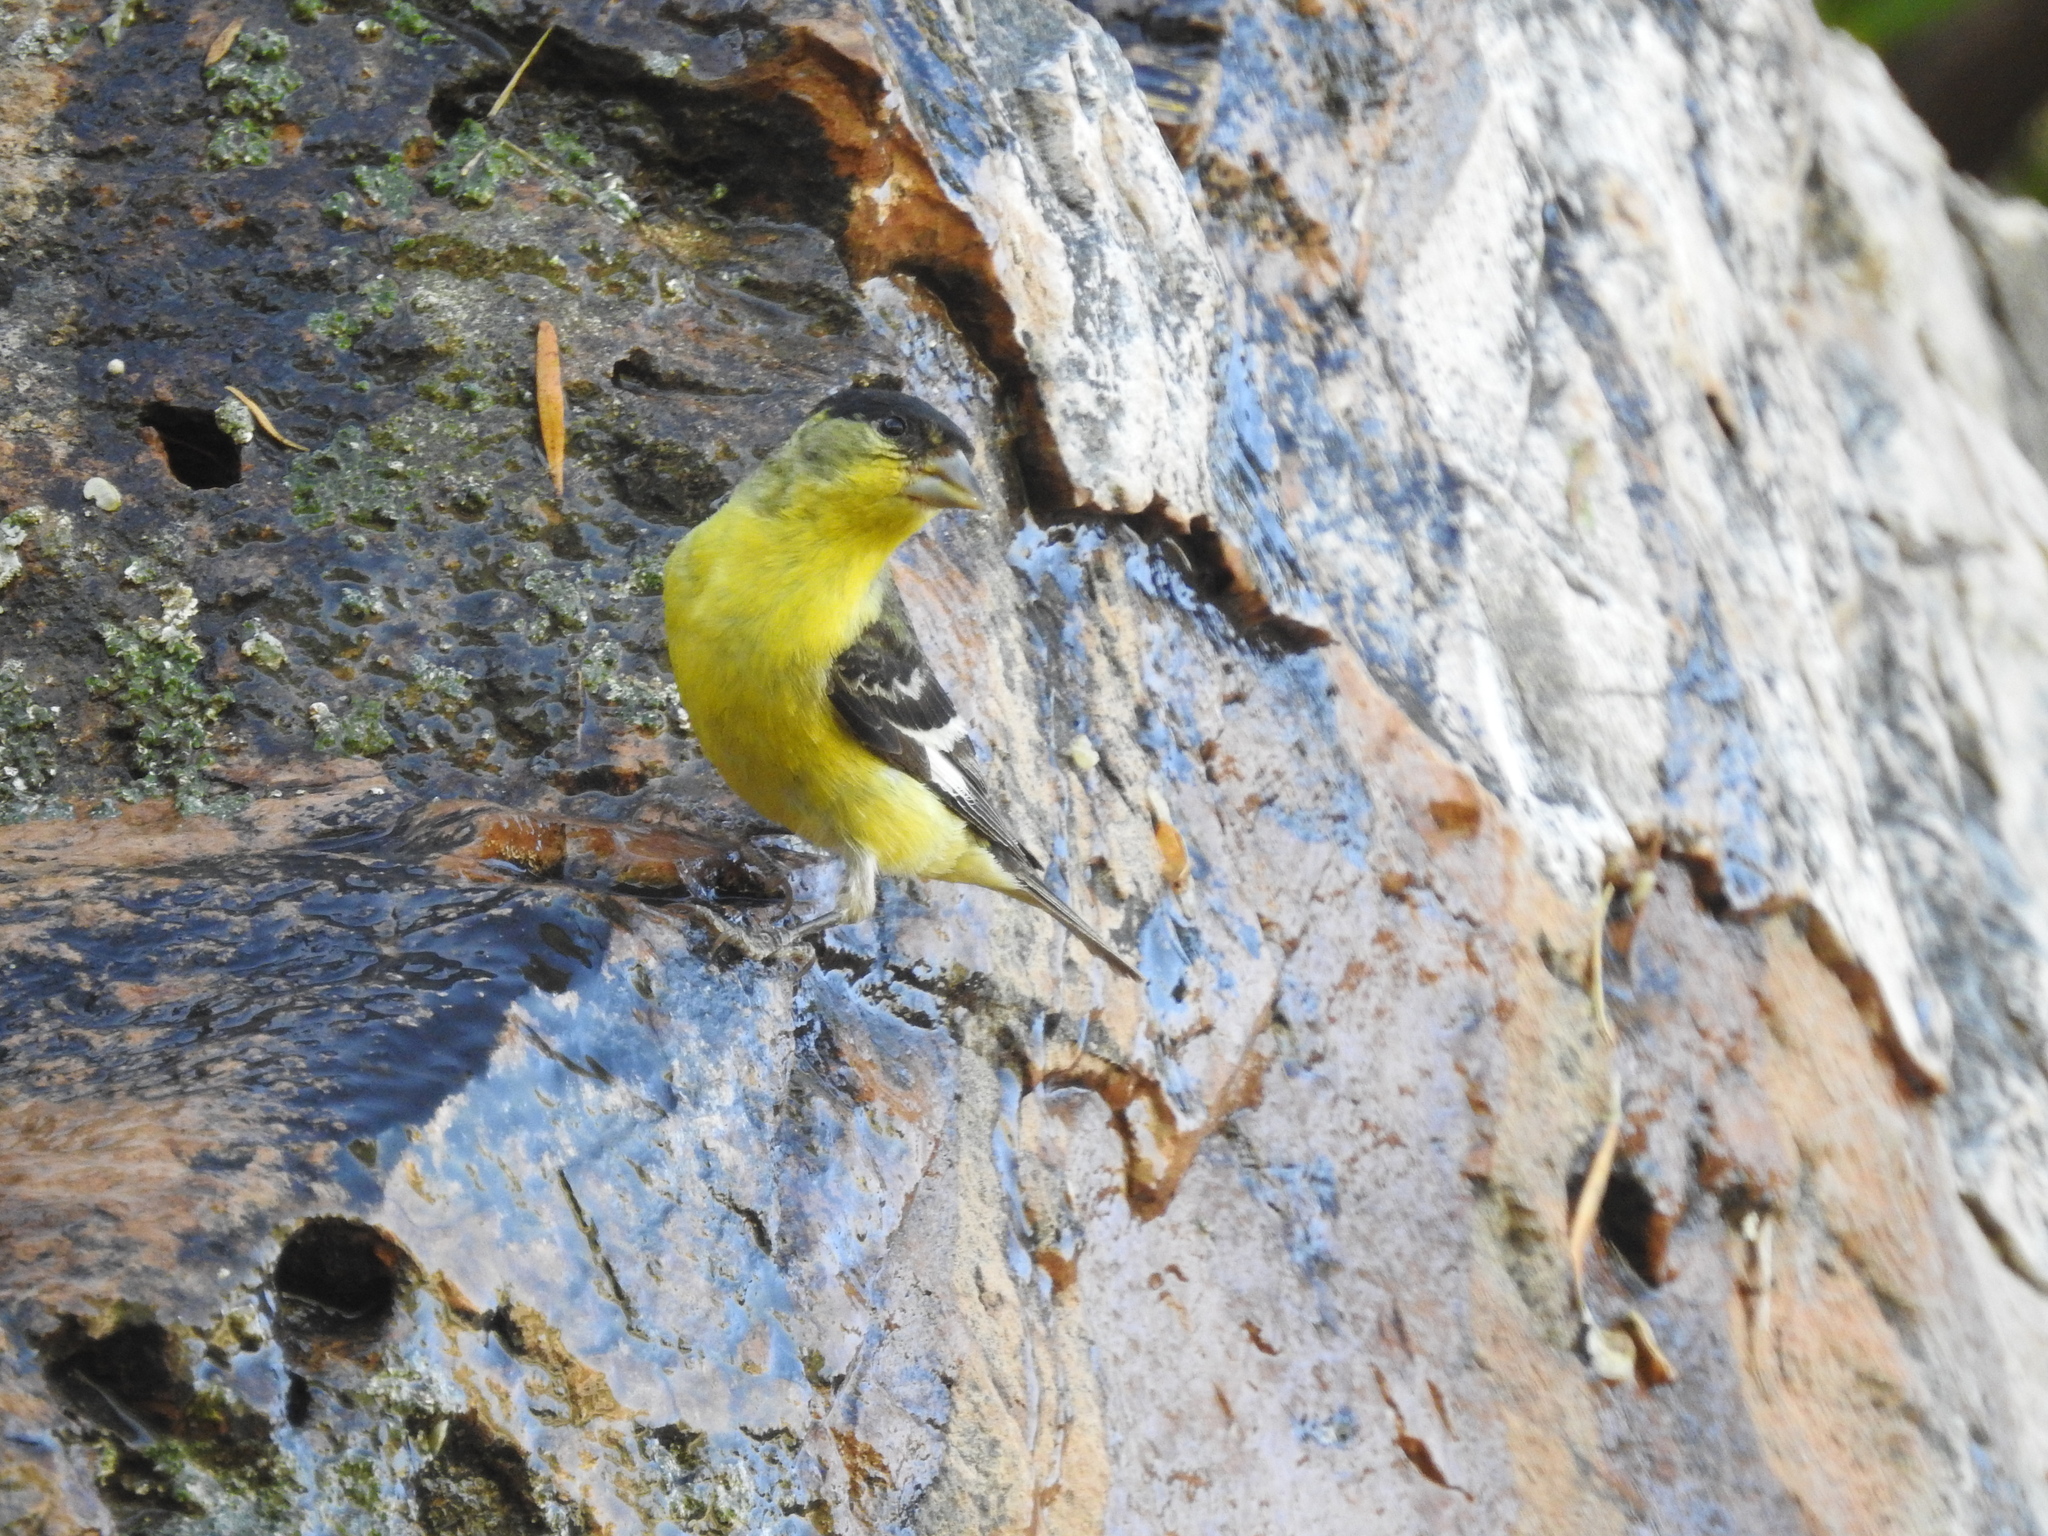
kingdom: Animalia
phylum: Chordata
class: Aves
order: Passeriformes
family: Fringillidae
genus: Spinus
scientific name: Spinus psaltria
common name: Lesser goldfinch
